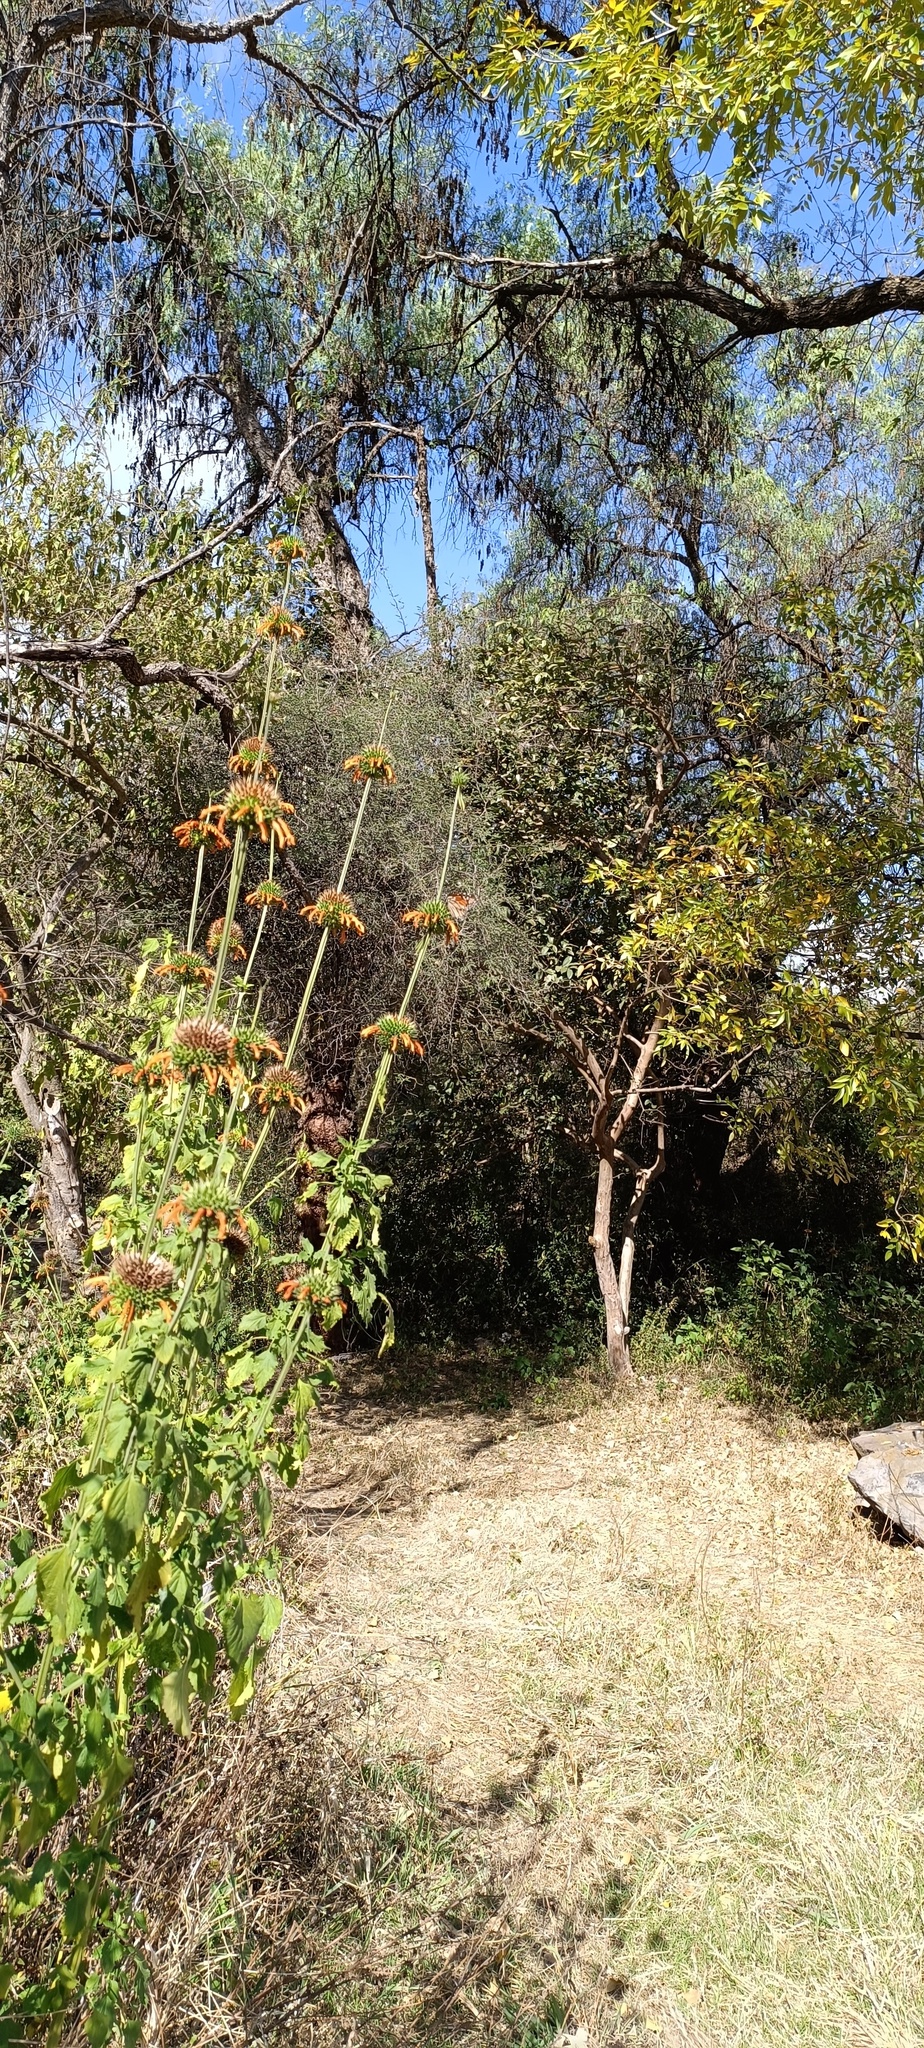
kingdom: Animalia
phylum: Arthropoda
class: Insecta
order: Lepidoptera
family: Nymphalidae
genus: Danaus
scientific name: Danaus plexippus
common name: Monarch
